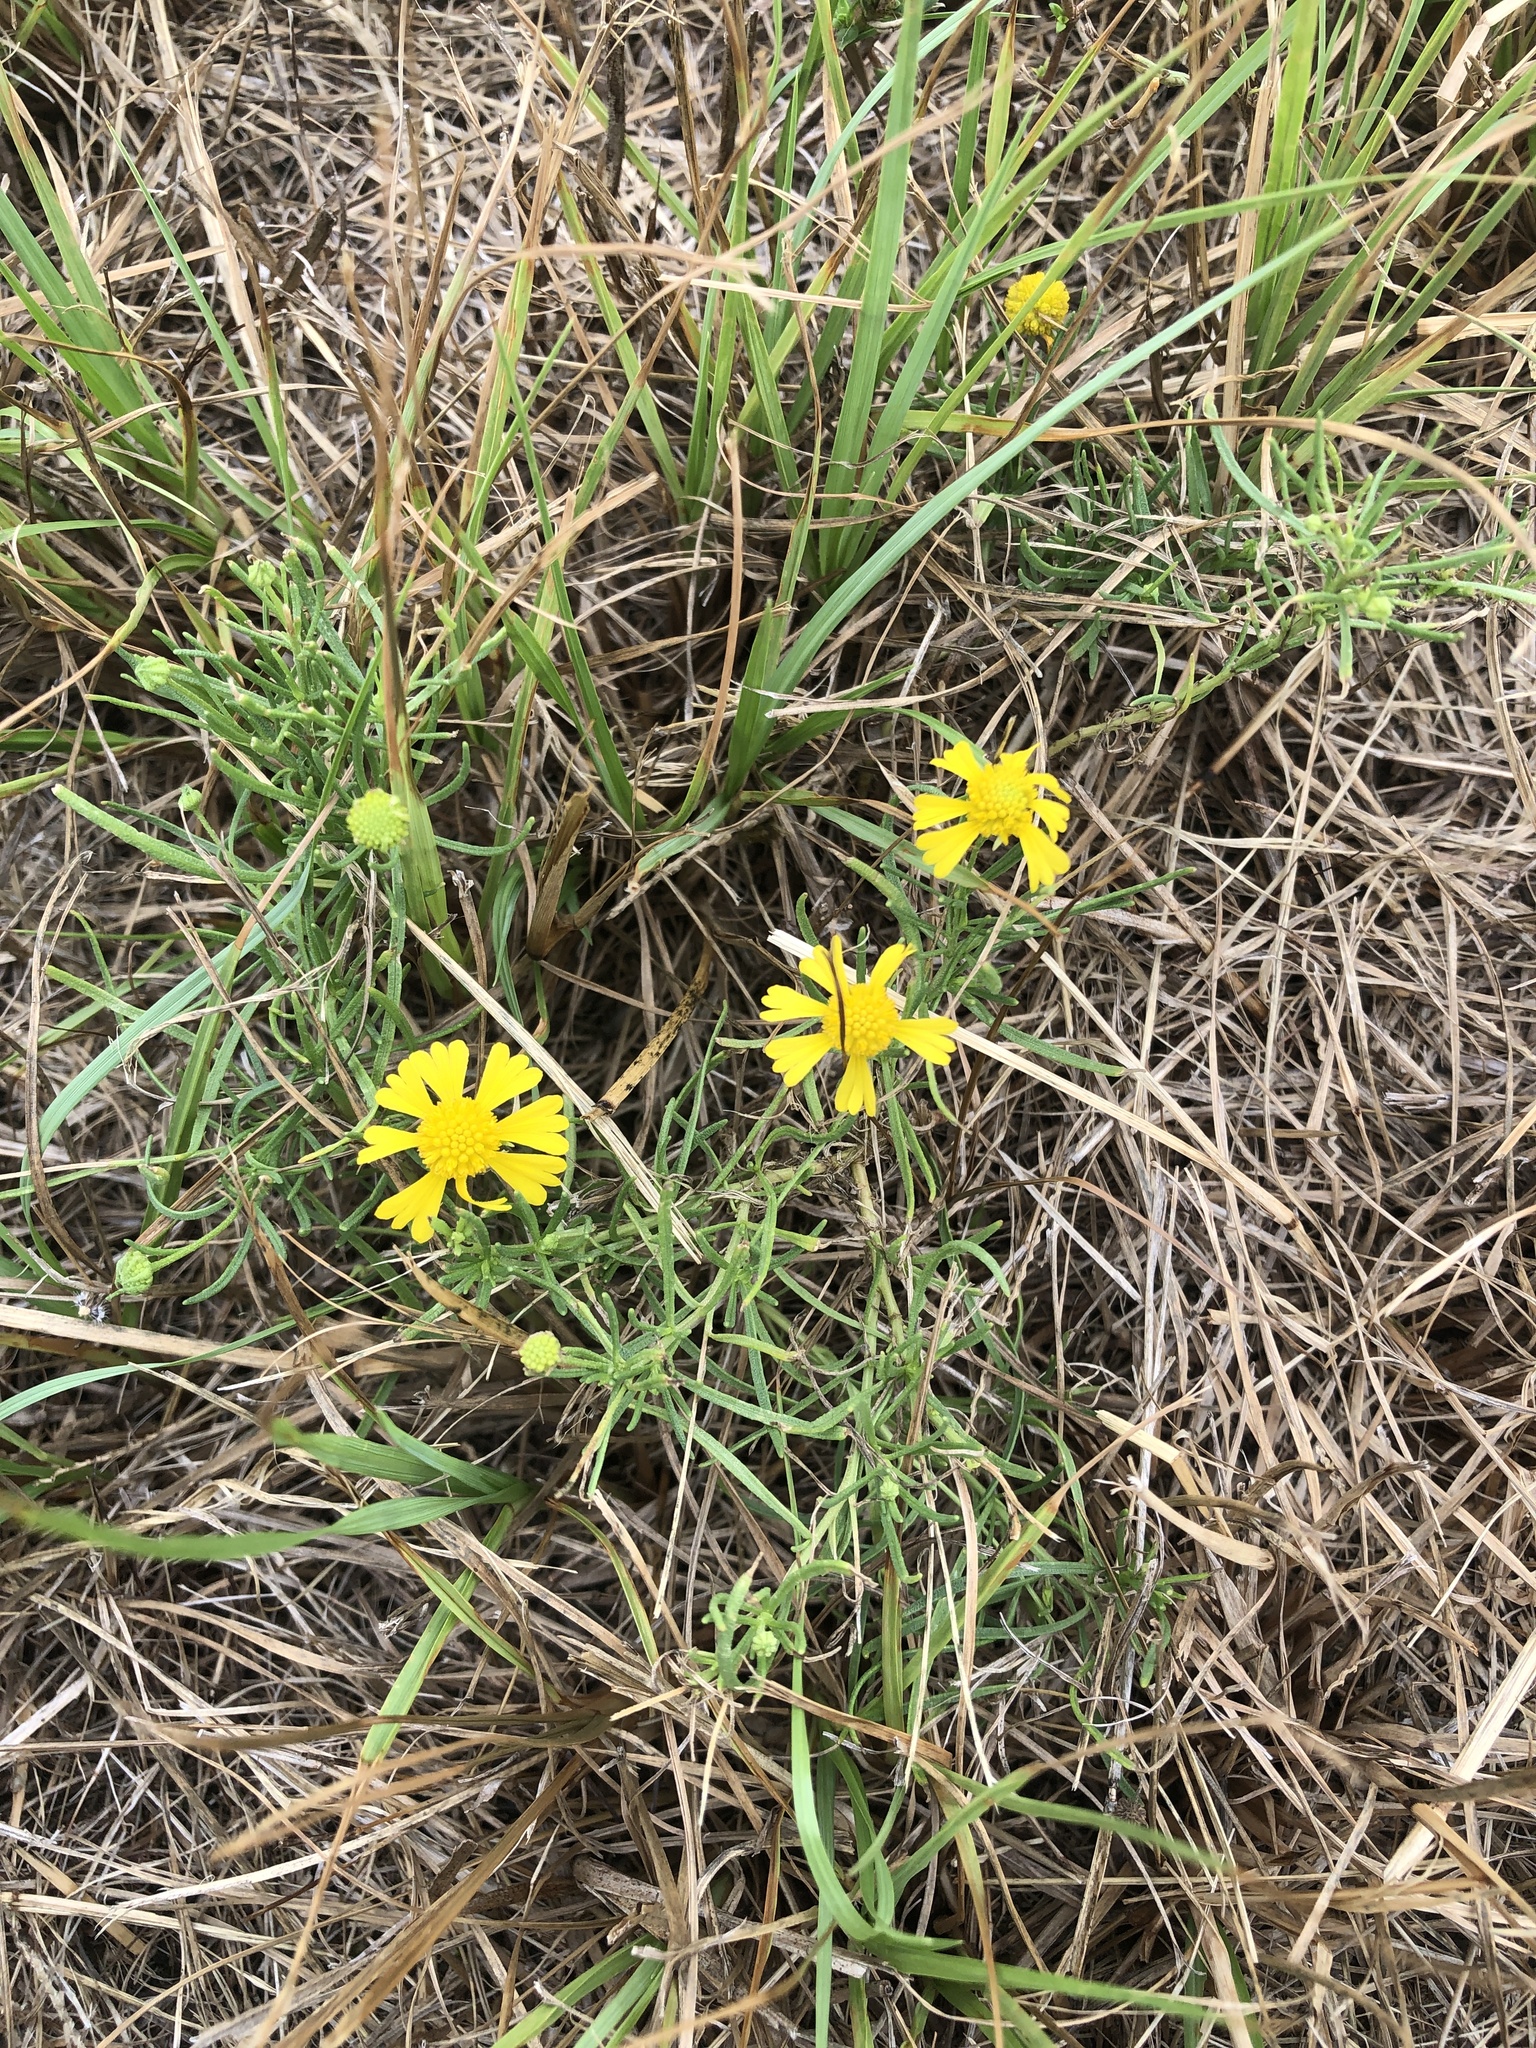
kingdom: Plantae
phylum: Tracheophyta
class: Magnoliopsida
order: Asterales
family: Asteraceae
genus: Helenium
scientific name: Helenium amarum
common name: Bitter sneezeweed
